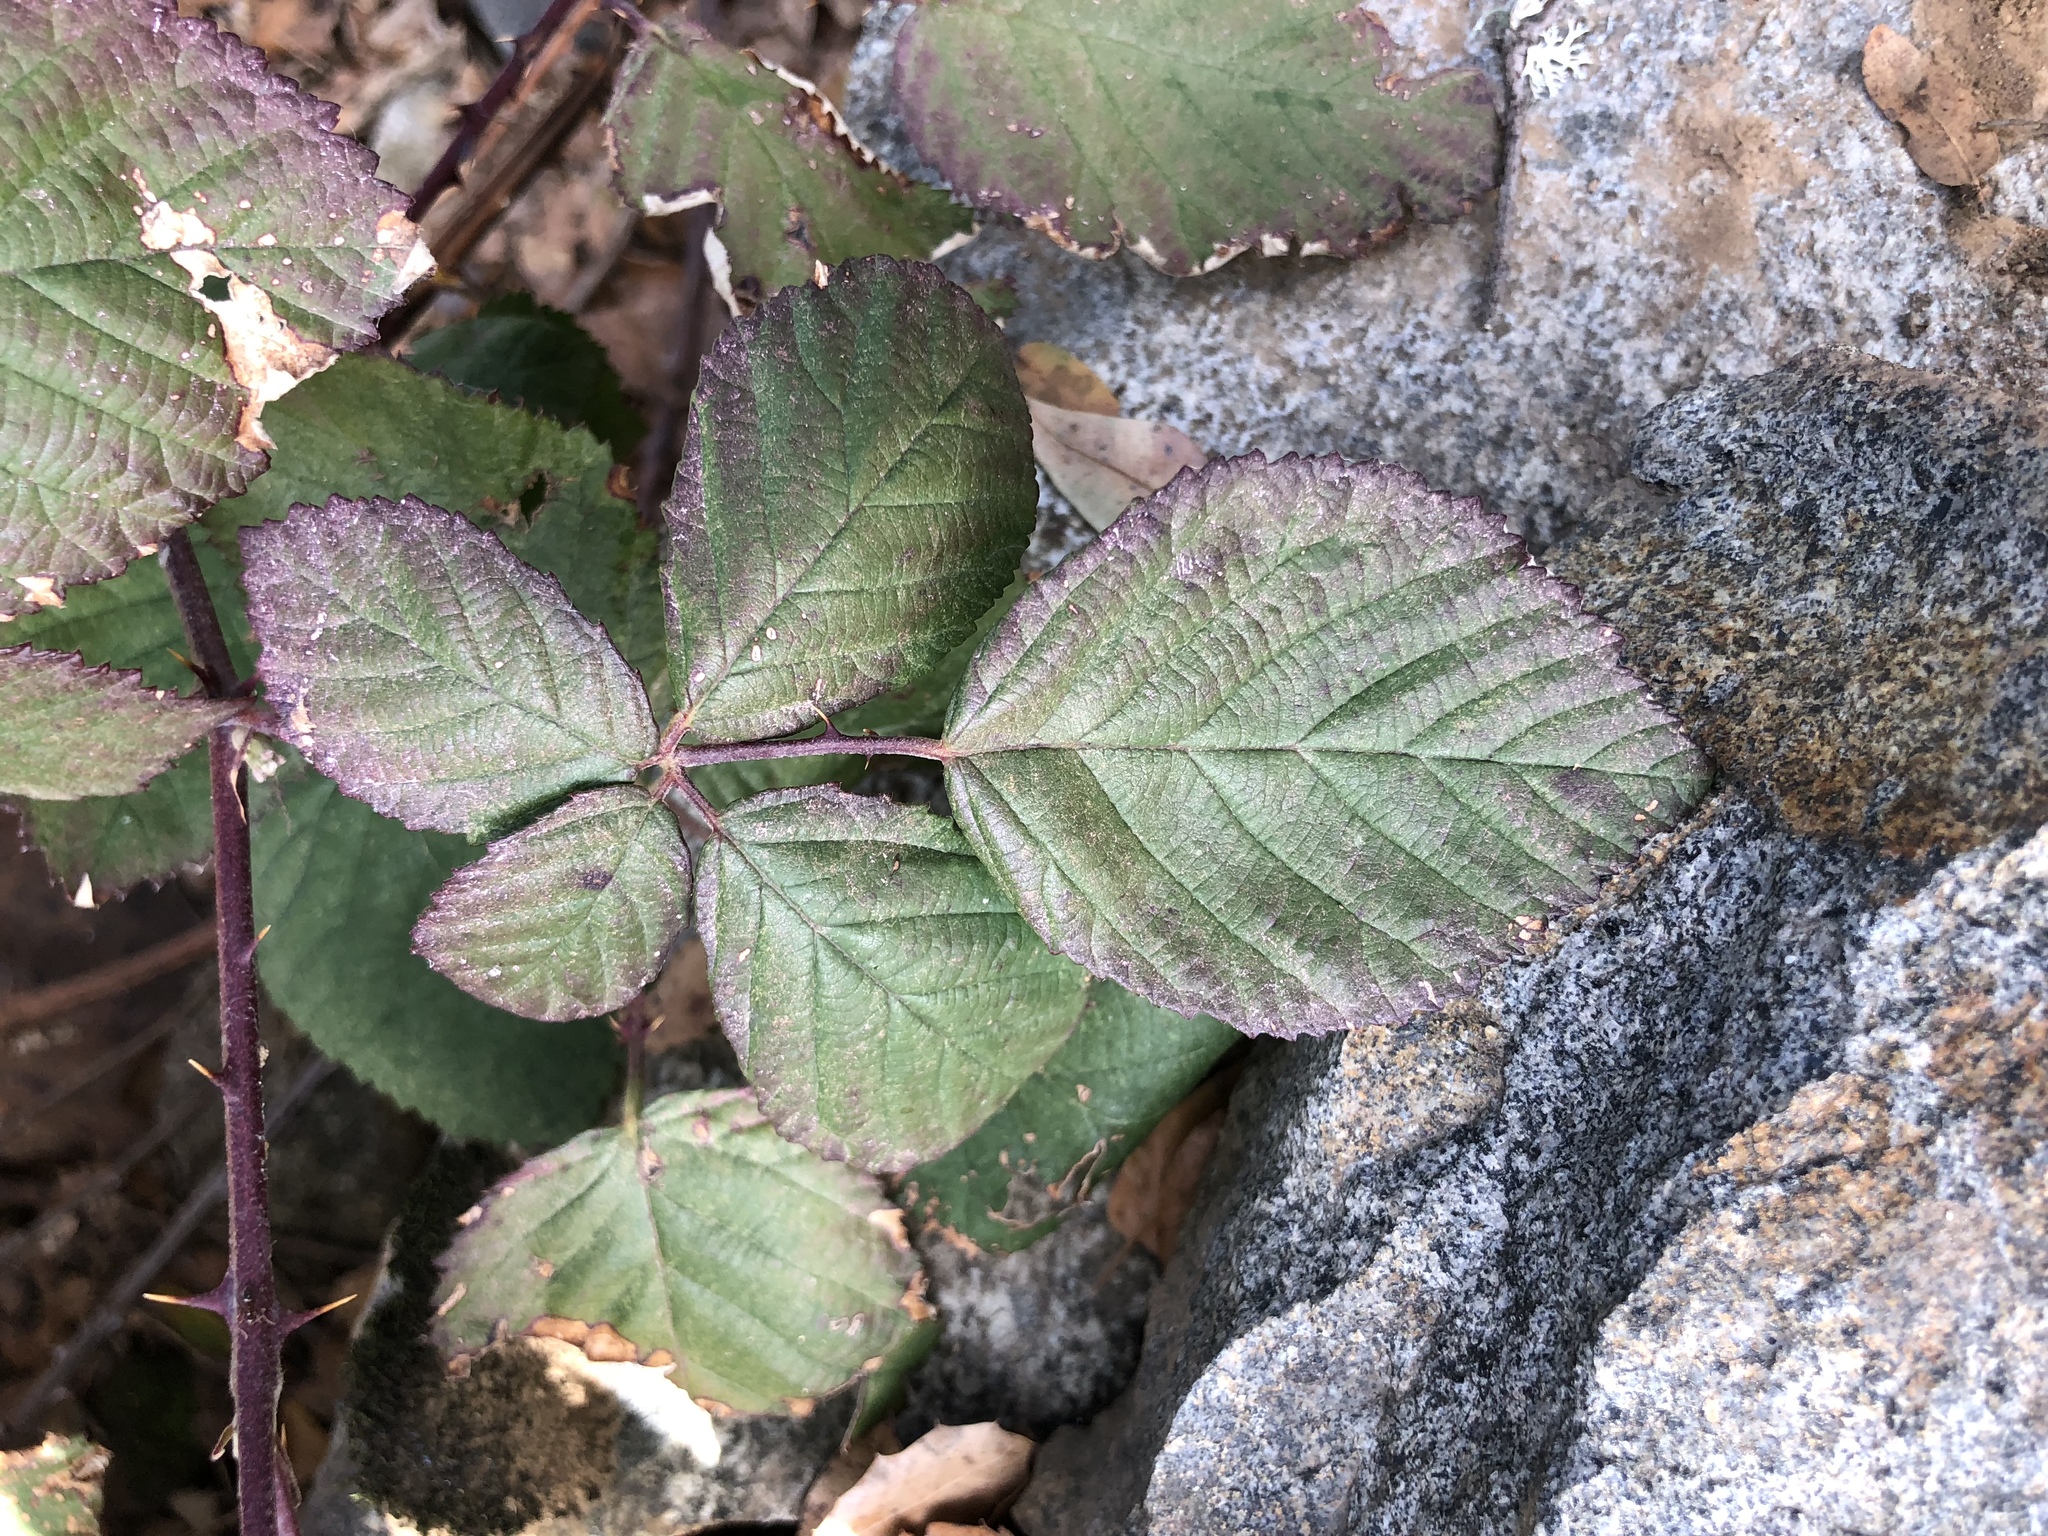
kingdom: Plantae
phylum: Tracheophyta
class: Magnoliopsida
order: Rosales
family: Rosaceae
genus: Rubus
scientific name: Rubus armeniacus
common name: Himalayan blackberry
